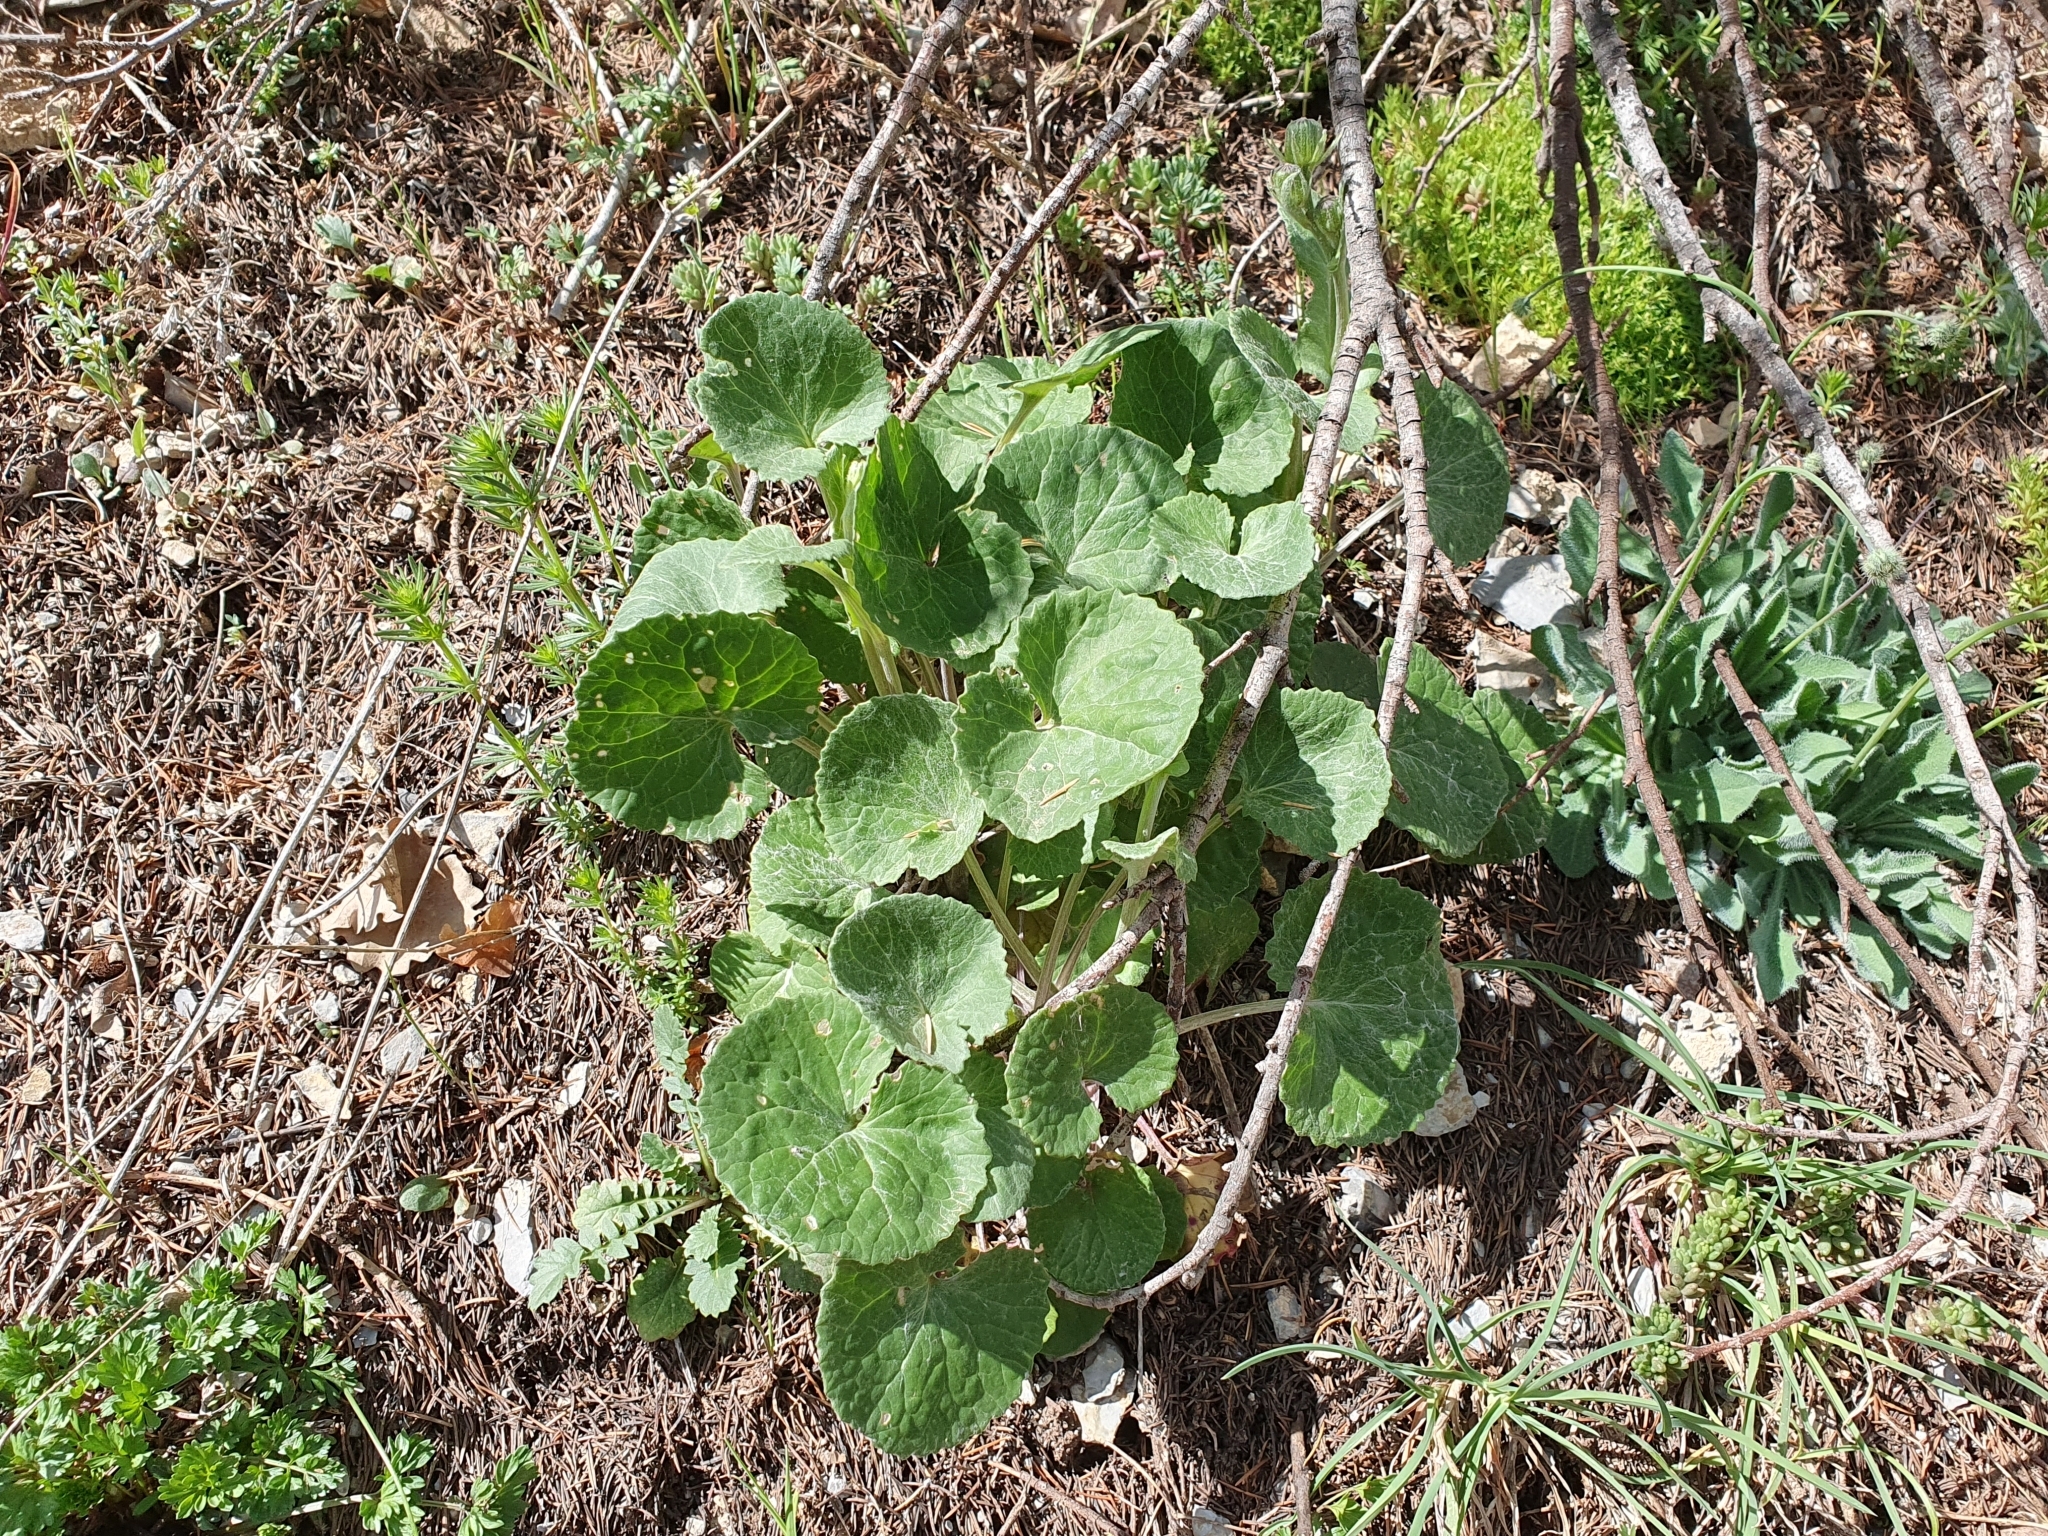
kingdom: Plantae
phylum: Tracheophyta
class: Magnoliopsida
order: Asterales
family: Asteraceae
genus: Senecio
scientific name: Senecio perralderianus
